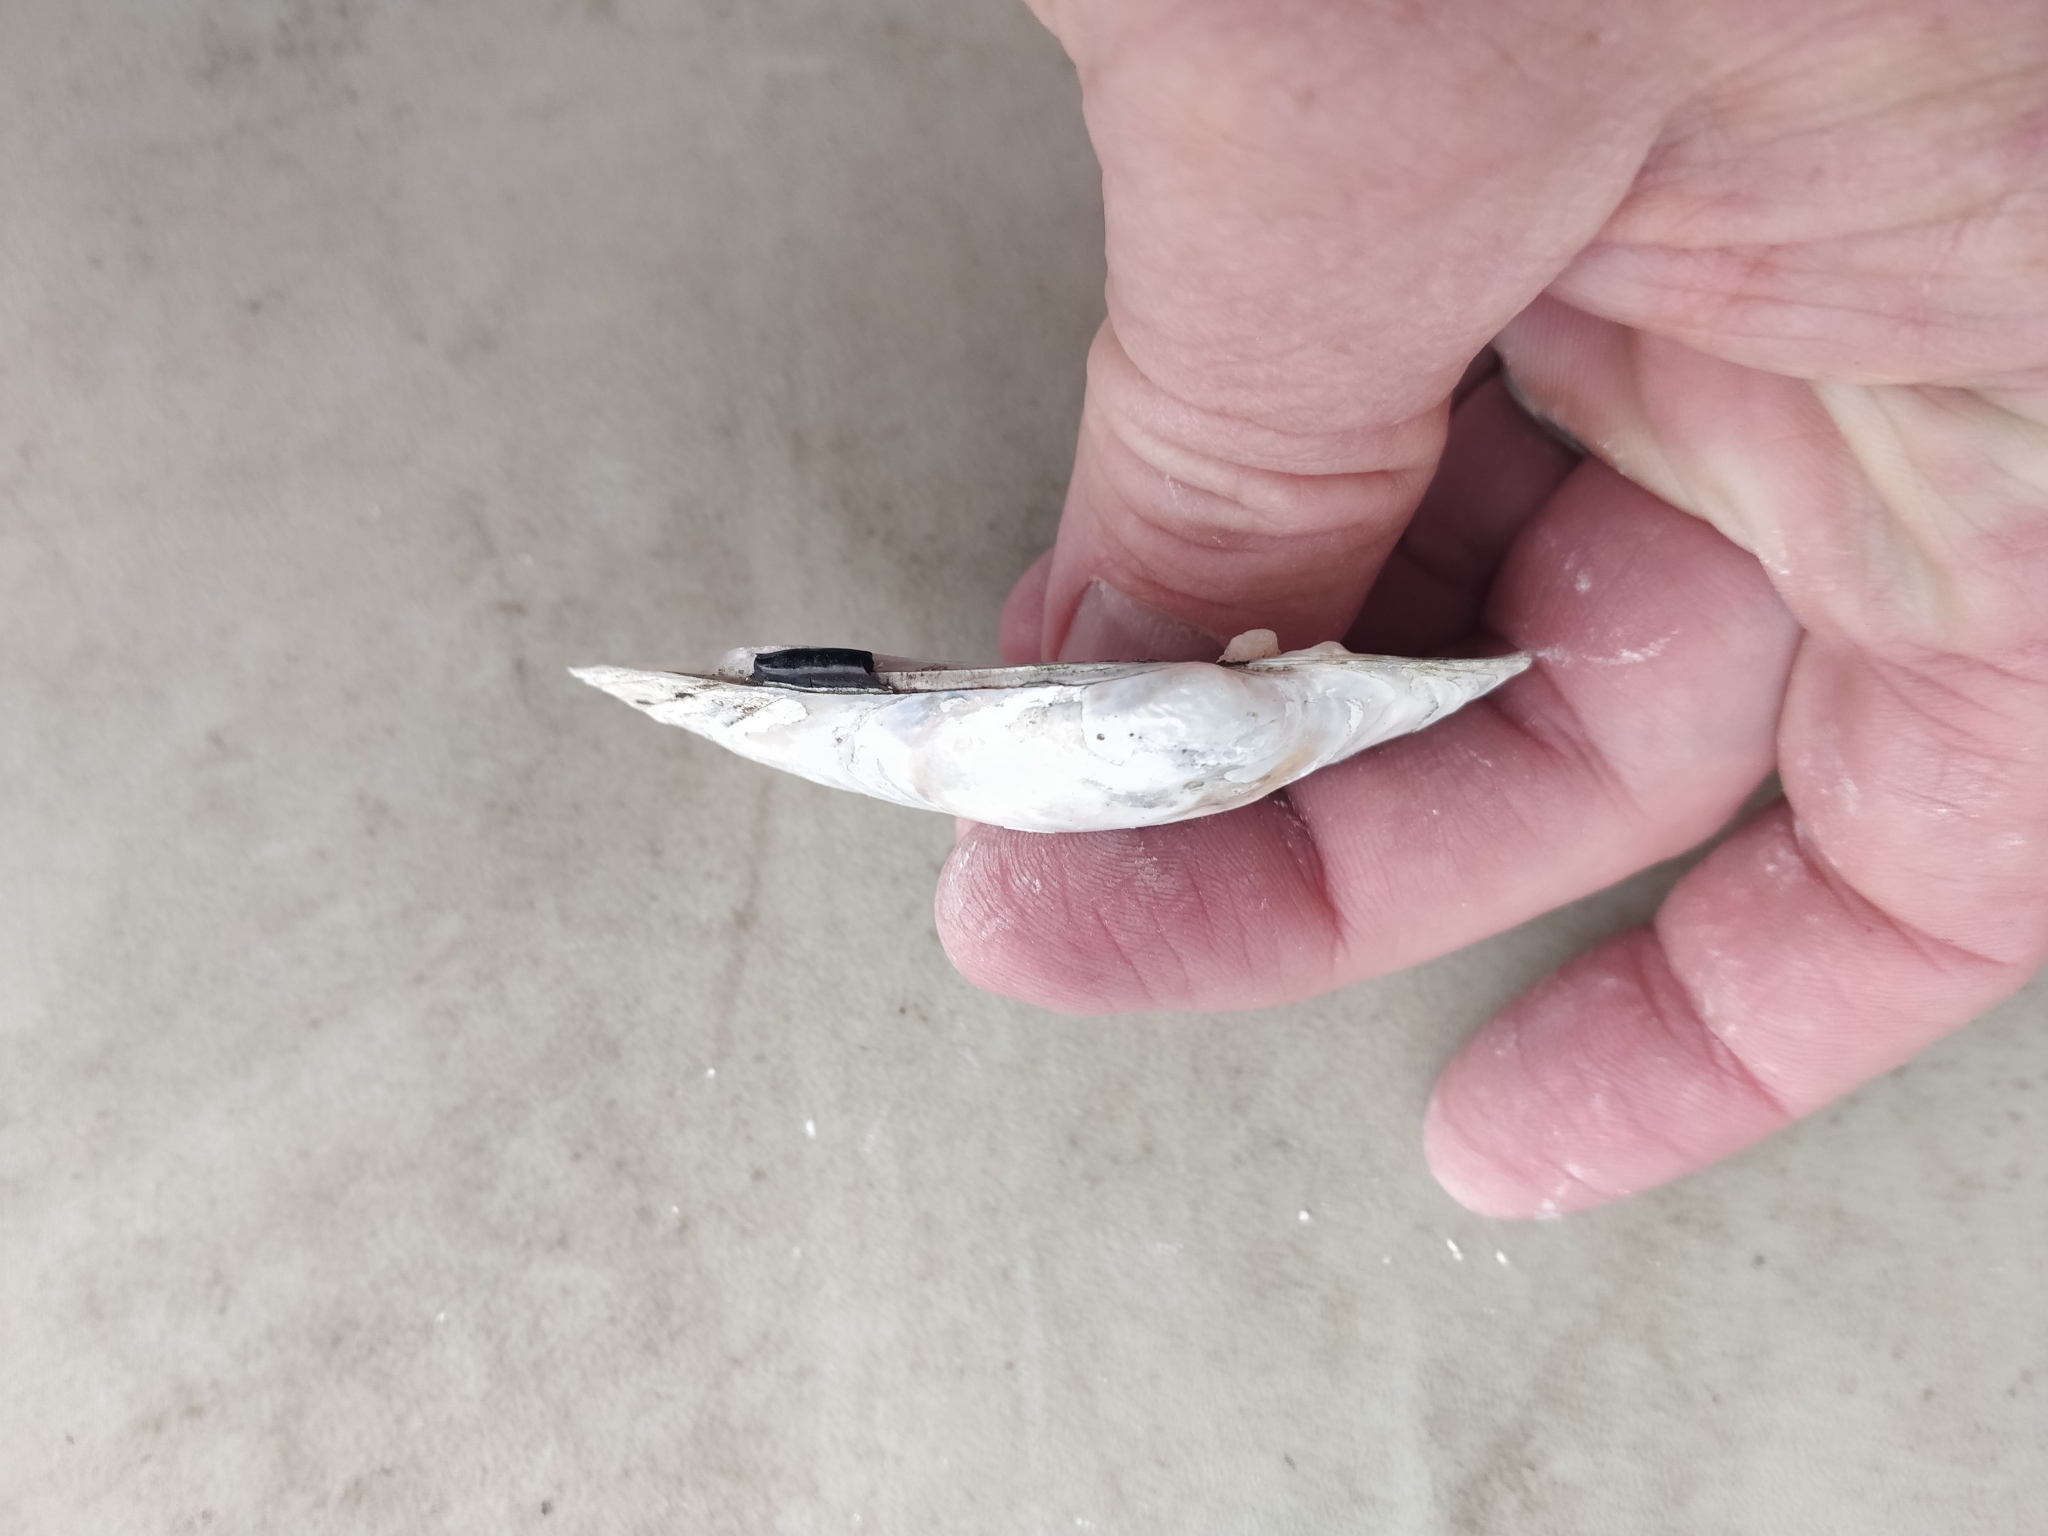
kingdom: Animalia
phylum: Mollusca
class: Bivalvia
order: Unionida
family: Unionidae
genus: Lampsilis
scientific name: Lampsilis siliquoidea
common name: Fatmucket
